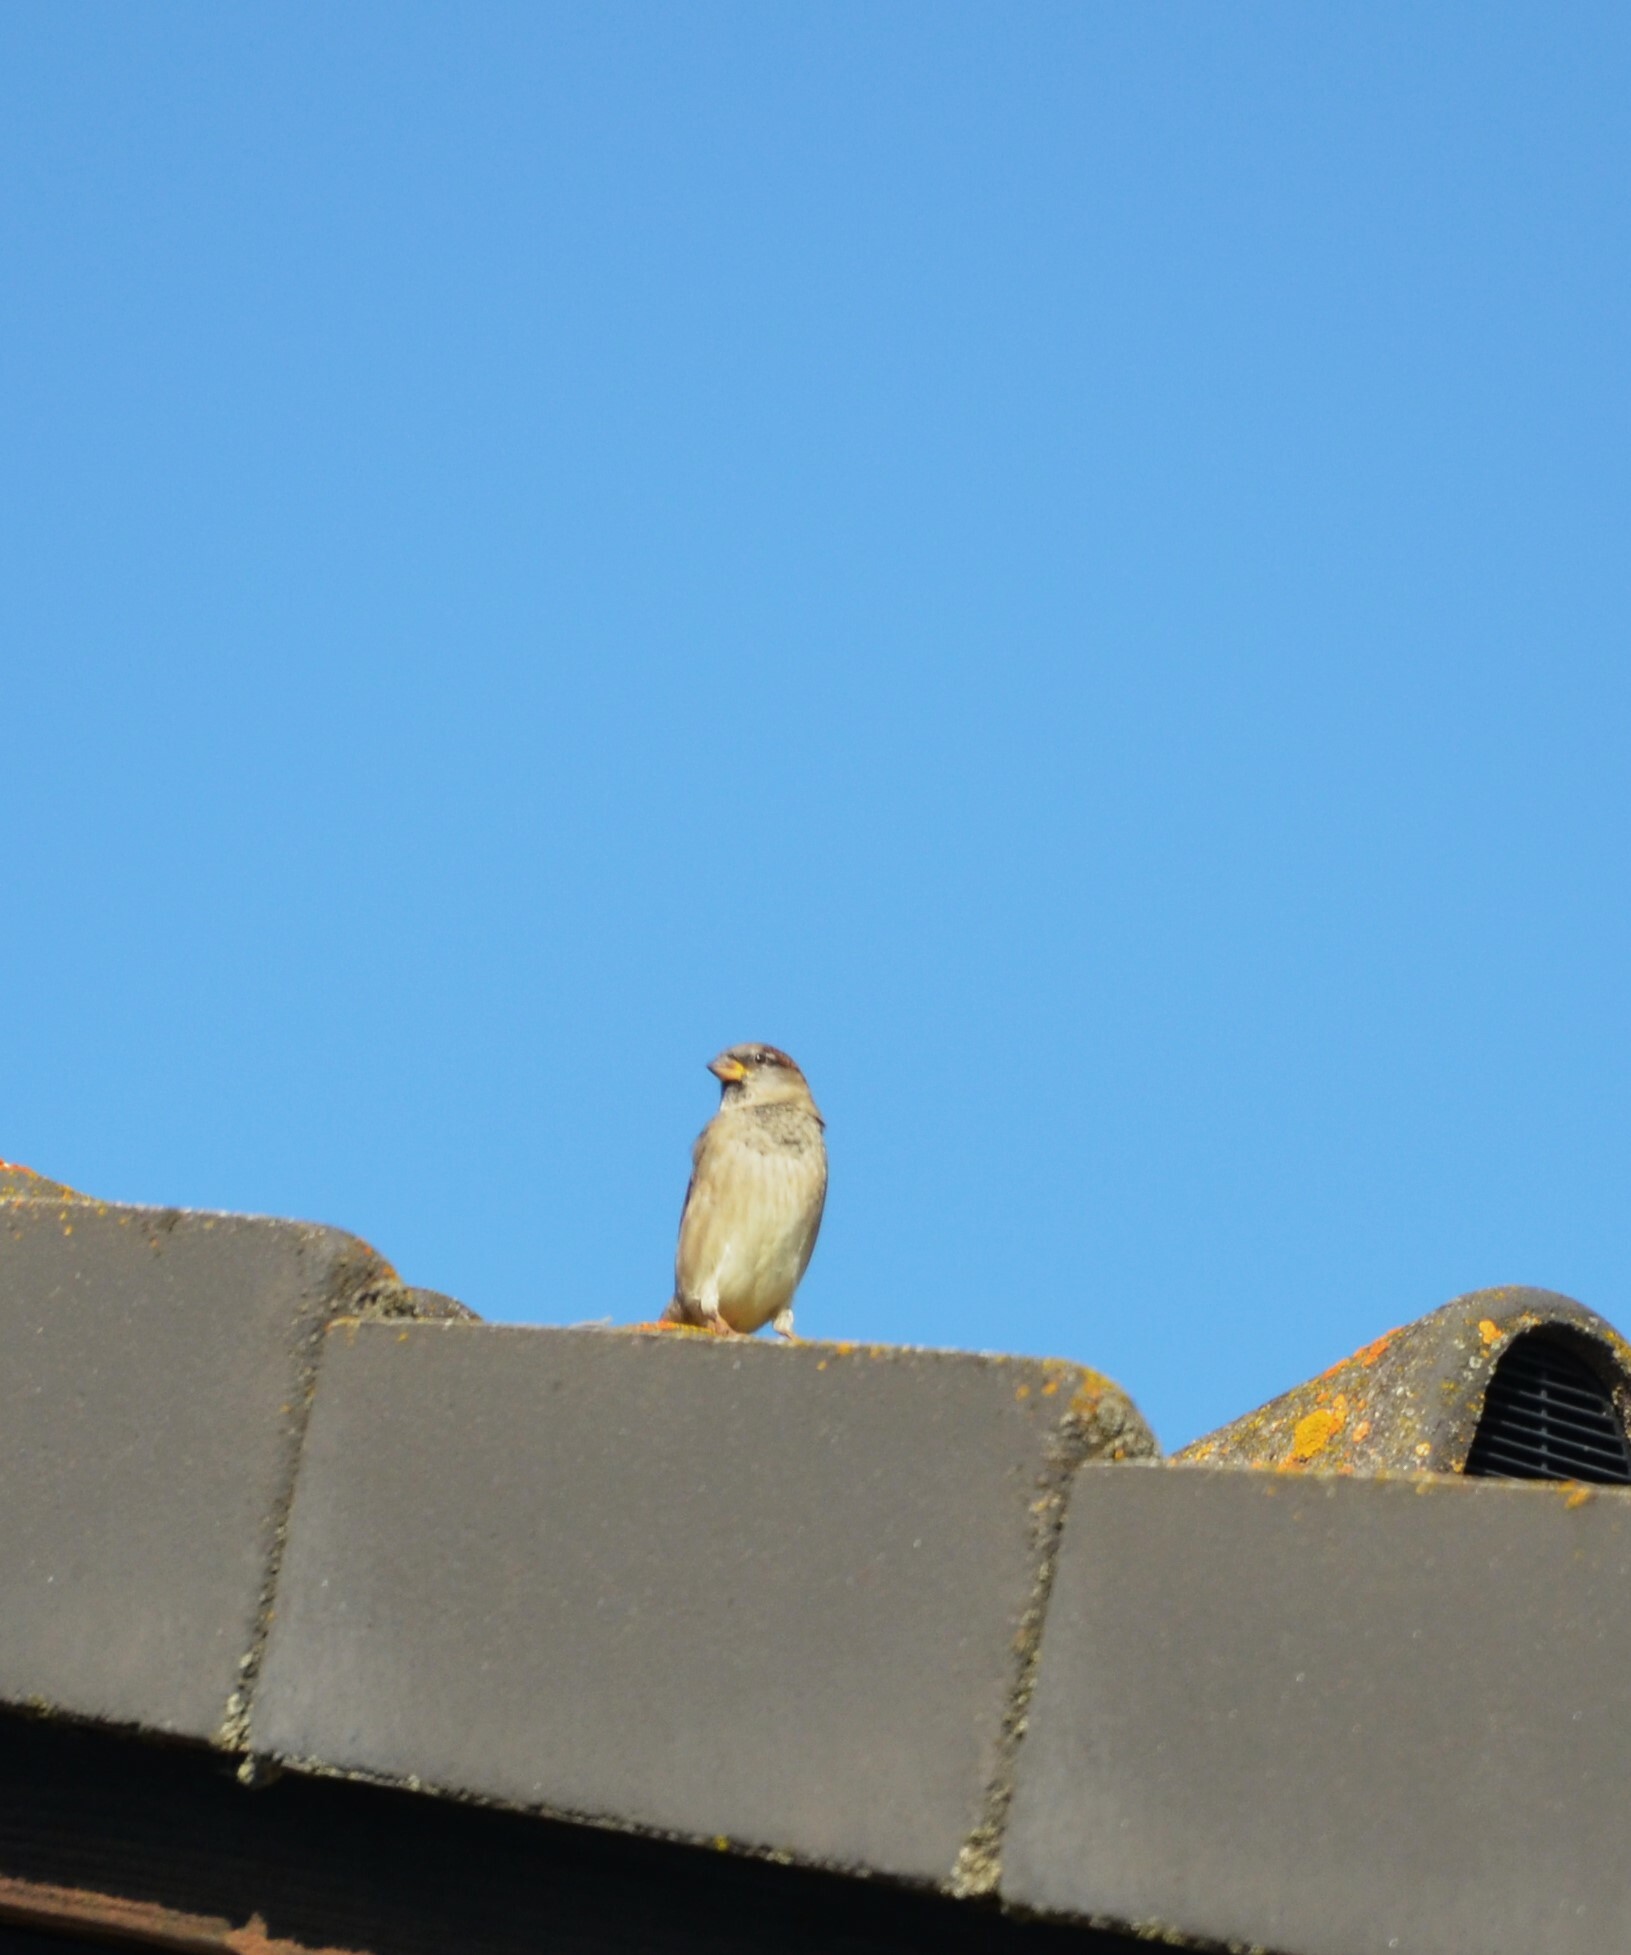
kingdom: Animalia
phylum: Chordata
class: Aves
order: Passeriformes
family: Passeridae
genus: Passer
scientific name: Passer domesticus
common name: House sparrow
